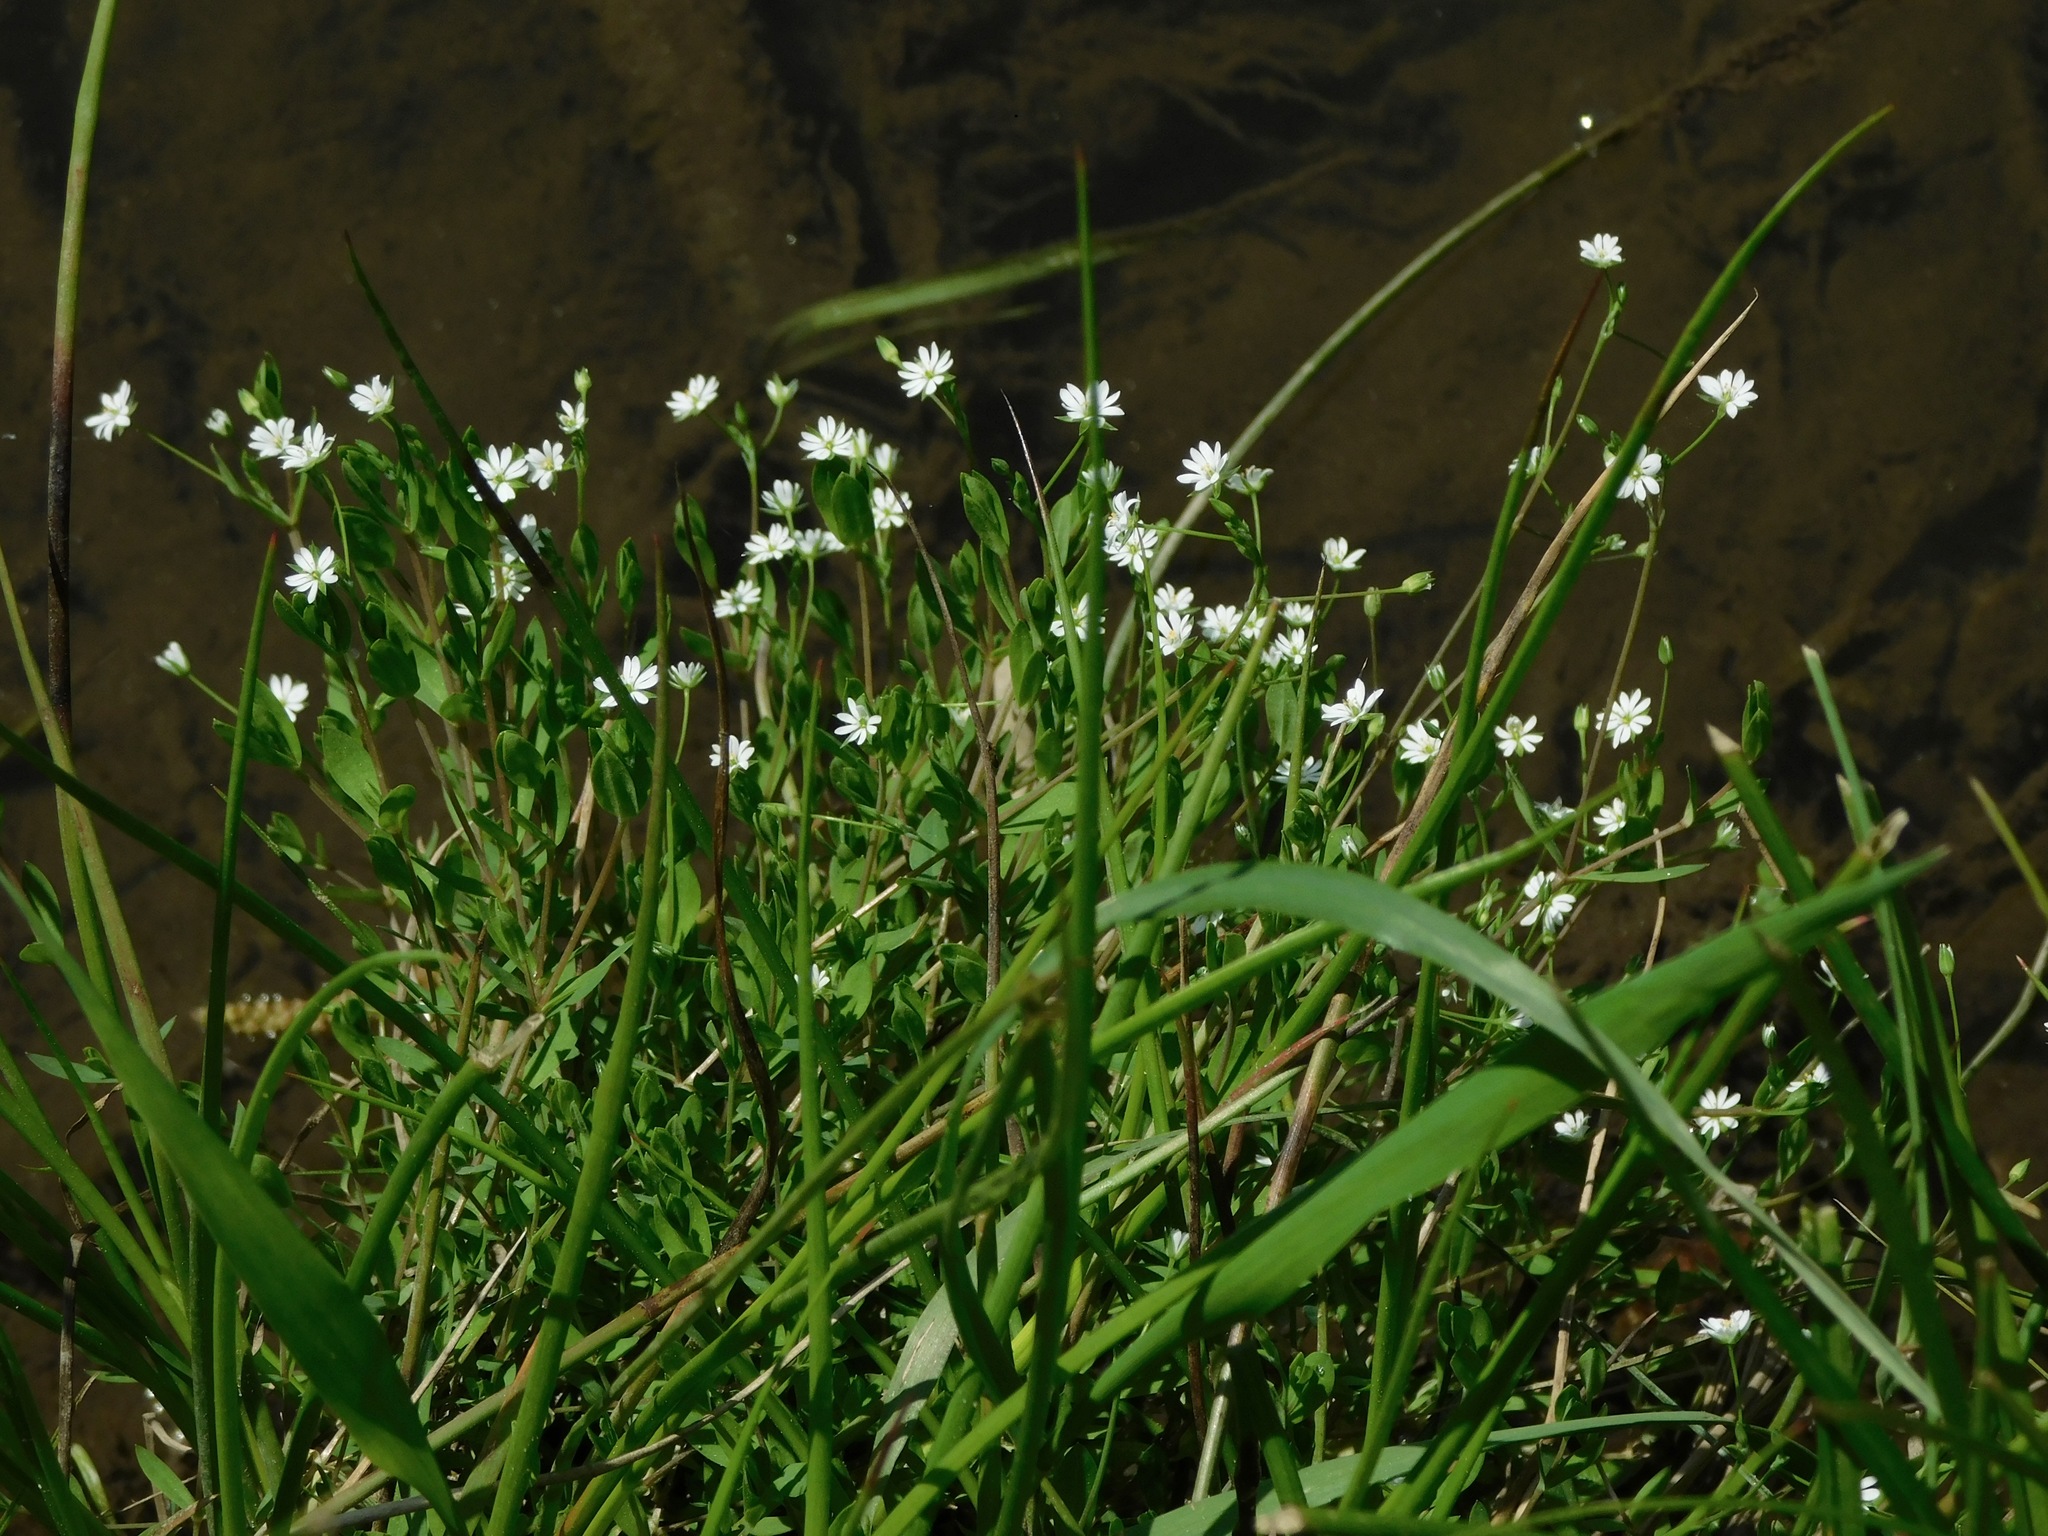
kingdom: Plantae
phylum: Tracheophyta
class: Magnoliopsida
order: Caryophyllales
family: Caryophyllaceae
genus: Cerastium
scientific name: Cerastium nutans
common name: Long-stalked chickweed
